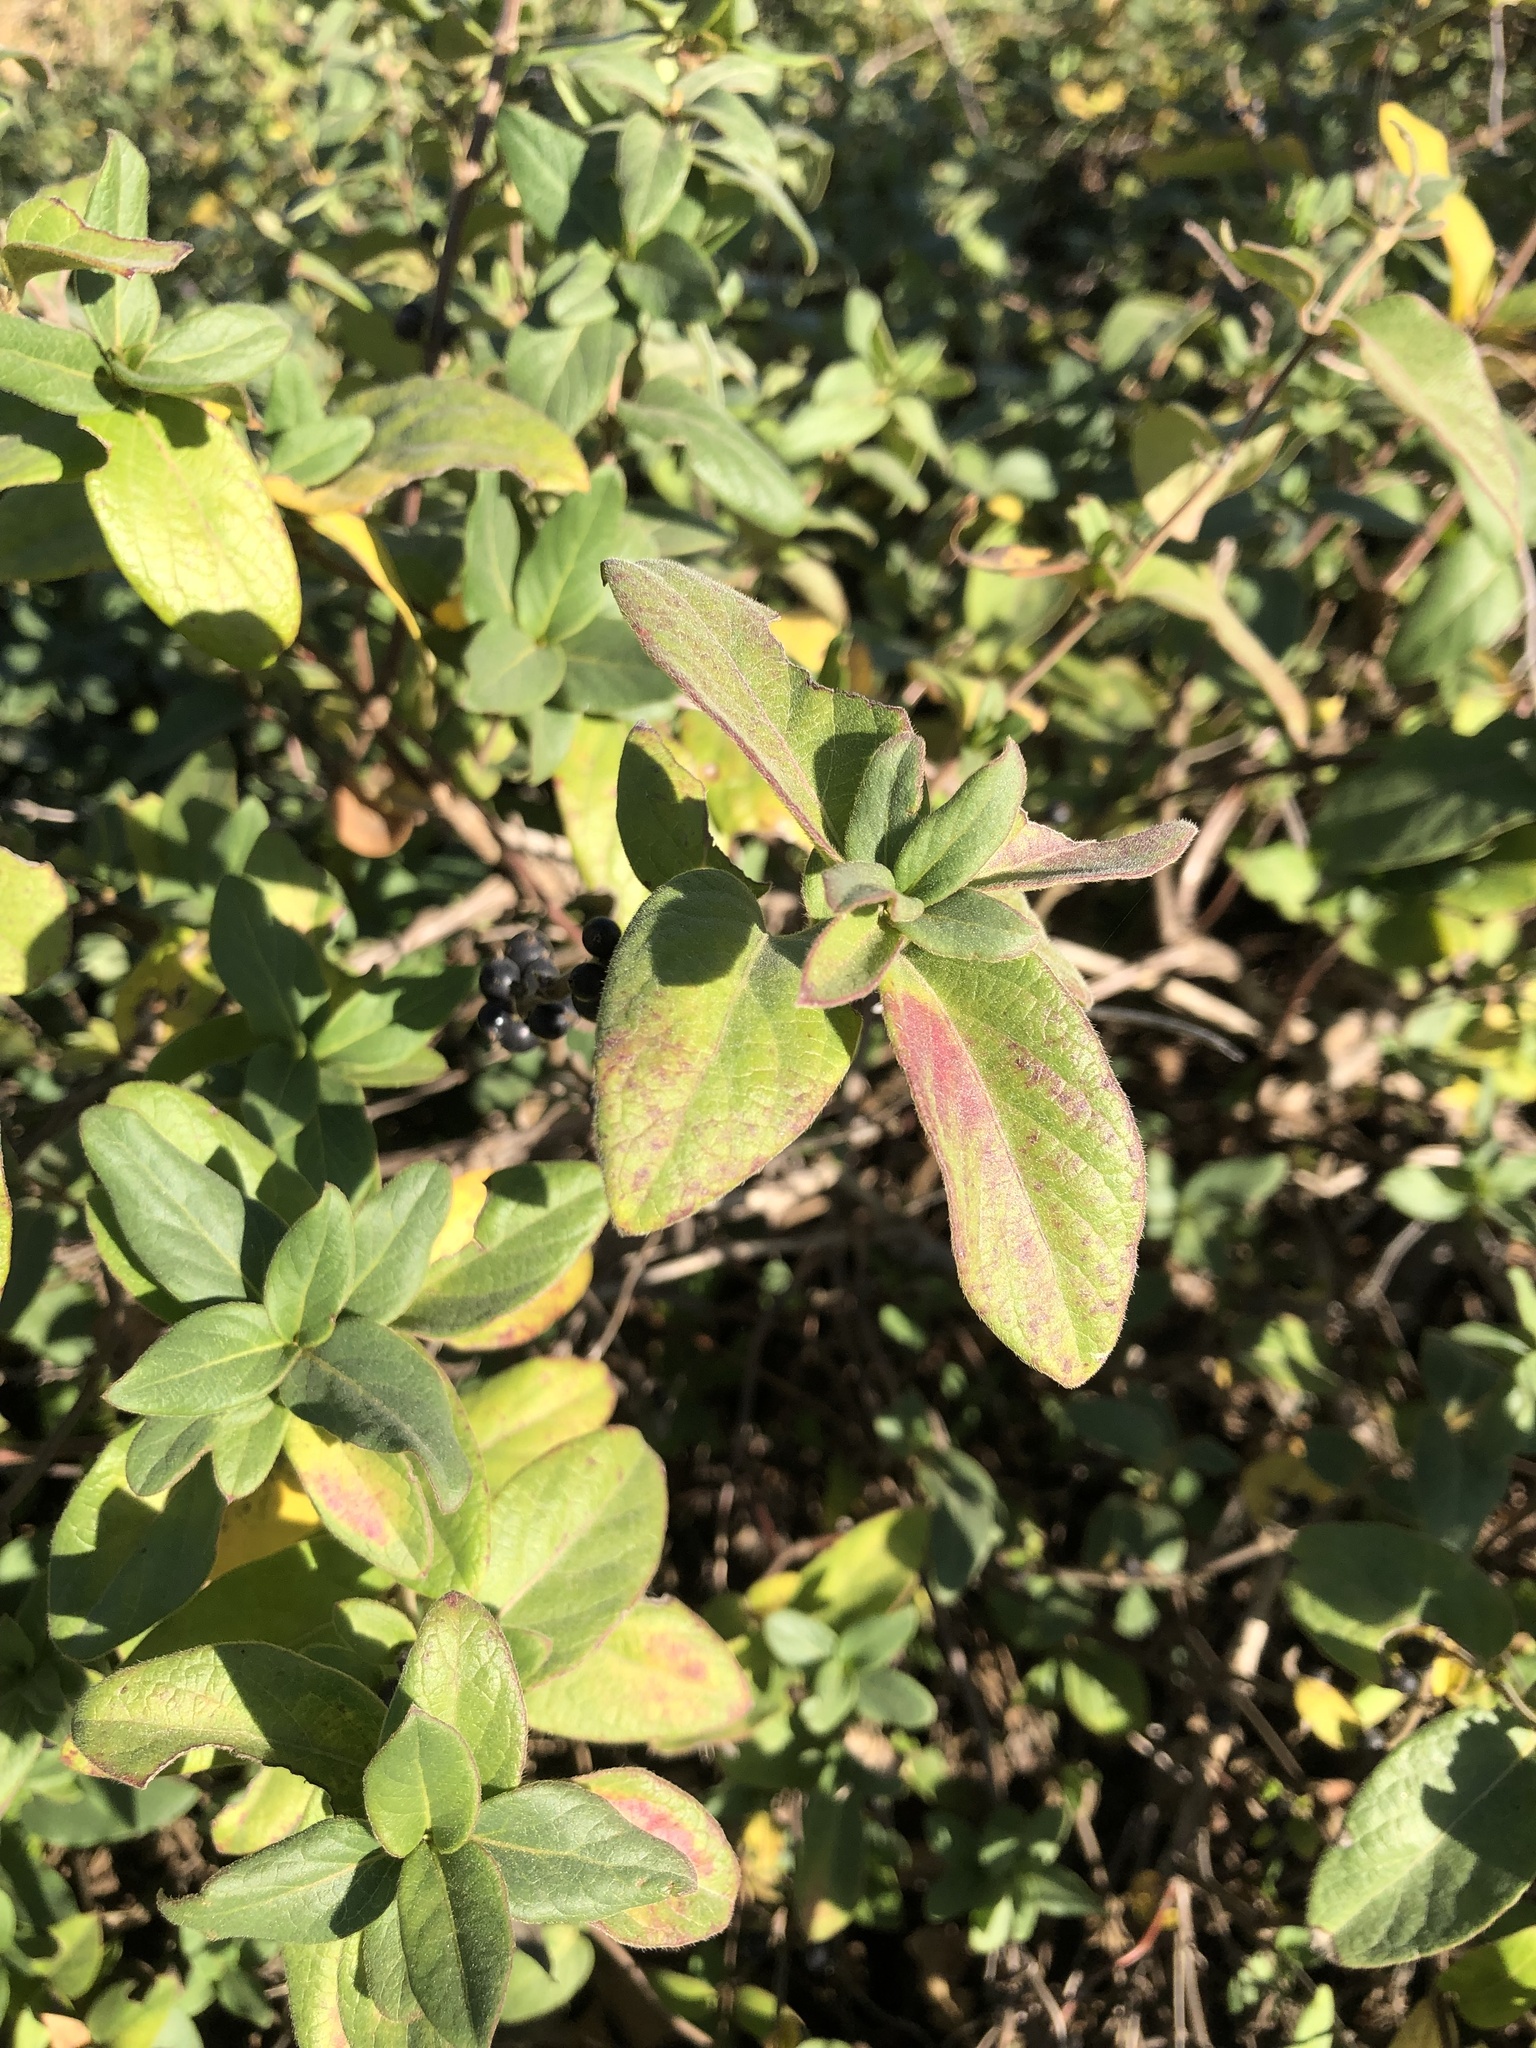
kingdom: Plantae
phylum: Tracheophyta
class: Magnoliopsida
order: Dipsacales
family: Caprifoliaceae
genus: Lonicera
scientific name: Lonicera japonica
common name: Japanese honeysuckle
